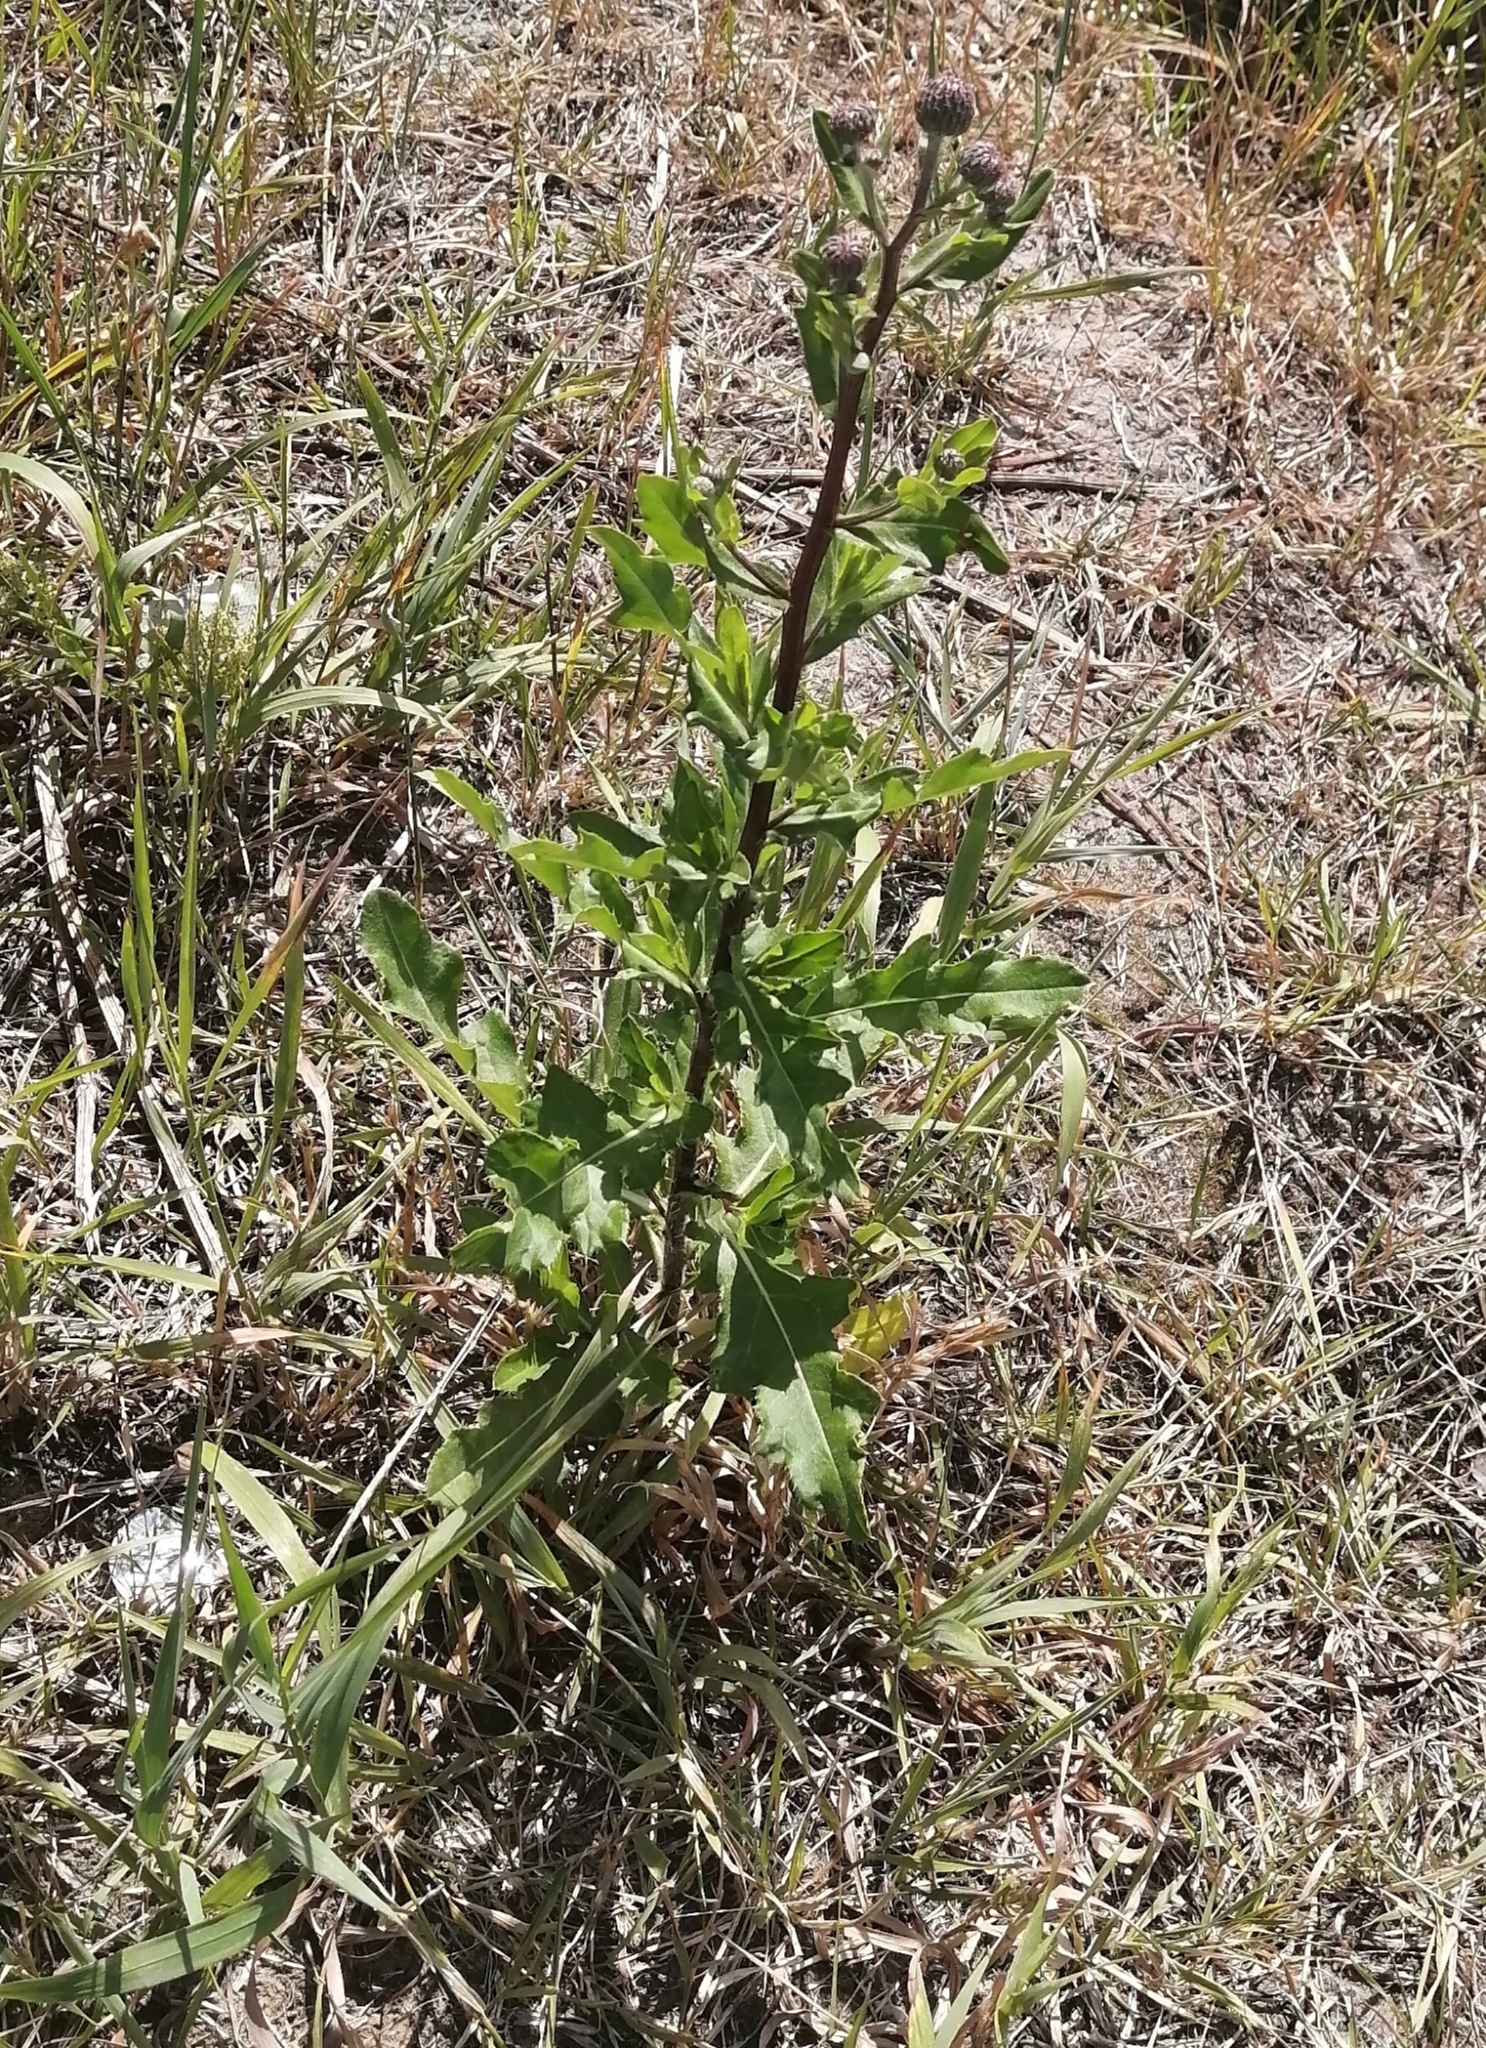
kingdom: Plantae
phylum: Tracheophyta
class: Magnoliopsida
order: Asterales
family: Asteraceae
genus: Cirsium
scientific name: Cirsium arvense
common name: Creeping thistle
